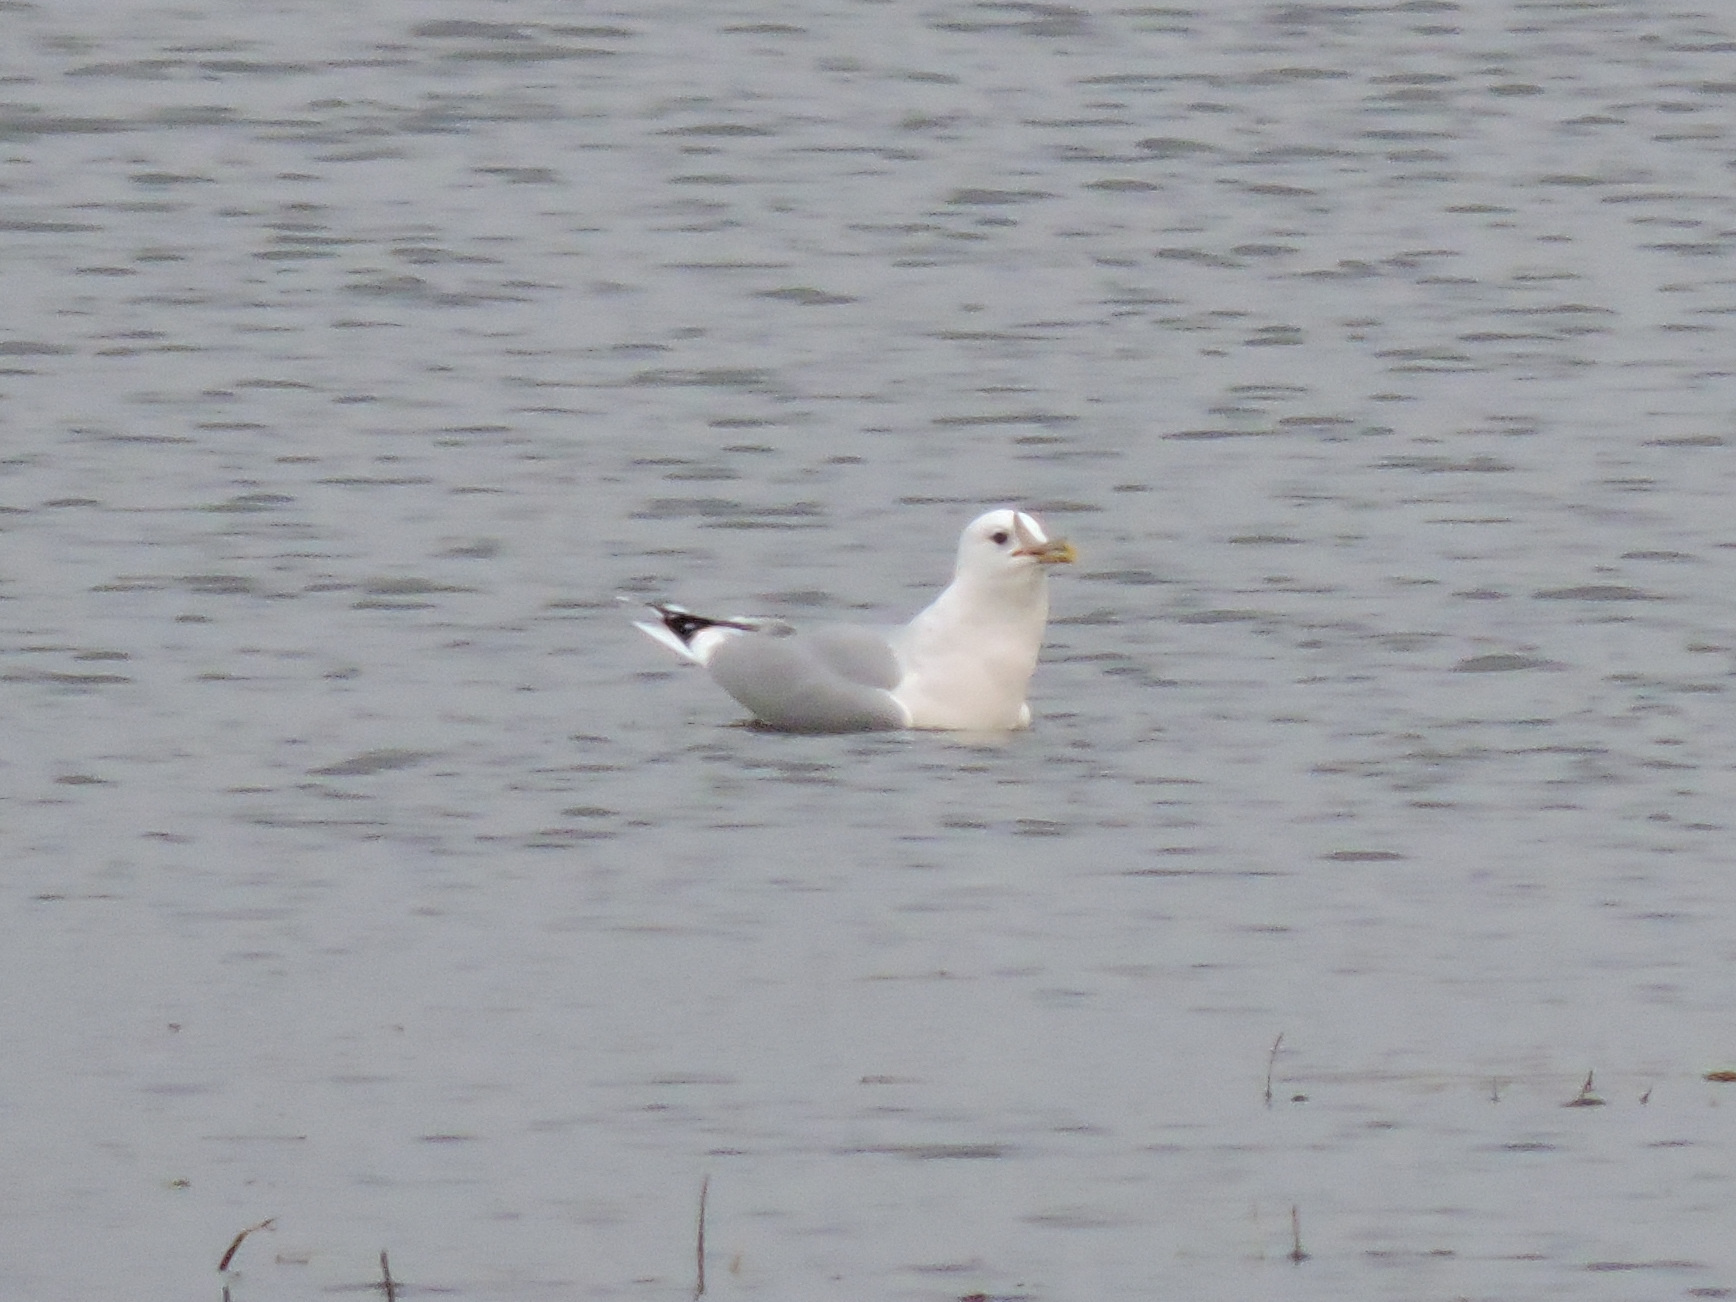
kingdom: Animalia
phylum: Chordata
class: Aves
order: Charadriiformes
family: Laridae
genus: Larus
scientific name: Larus canus
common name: Mew gull
